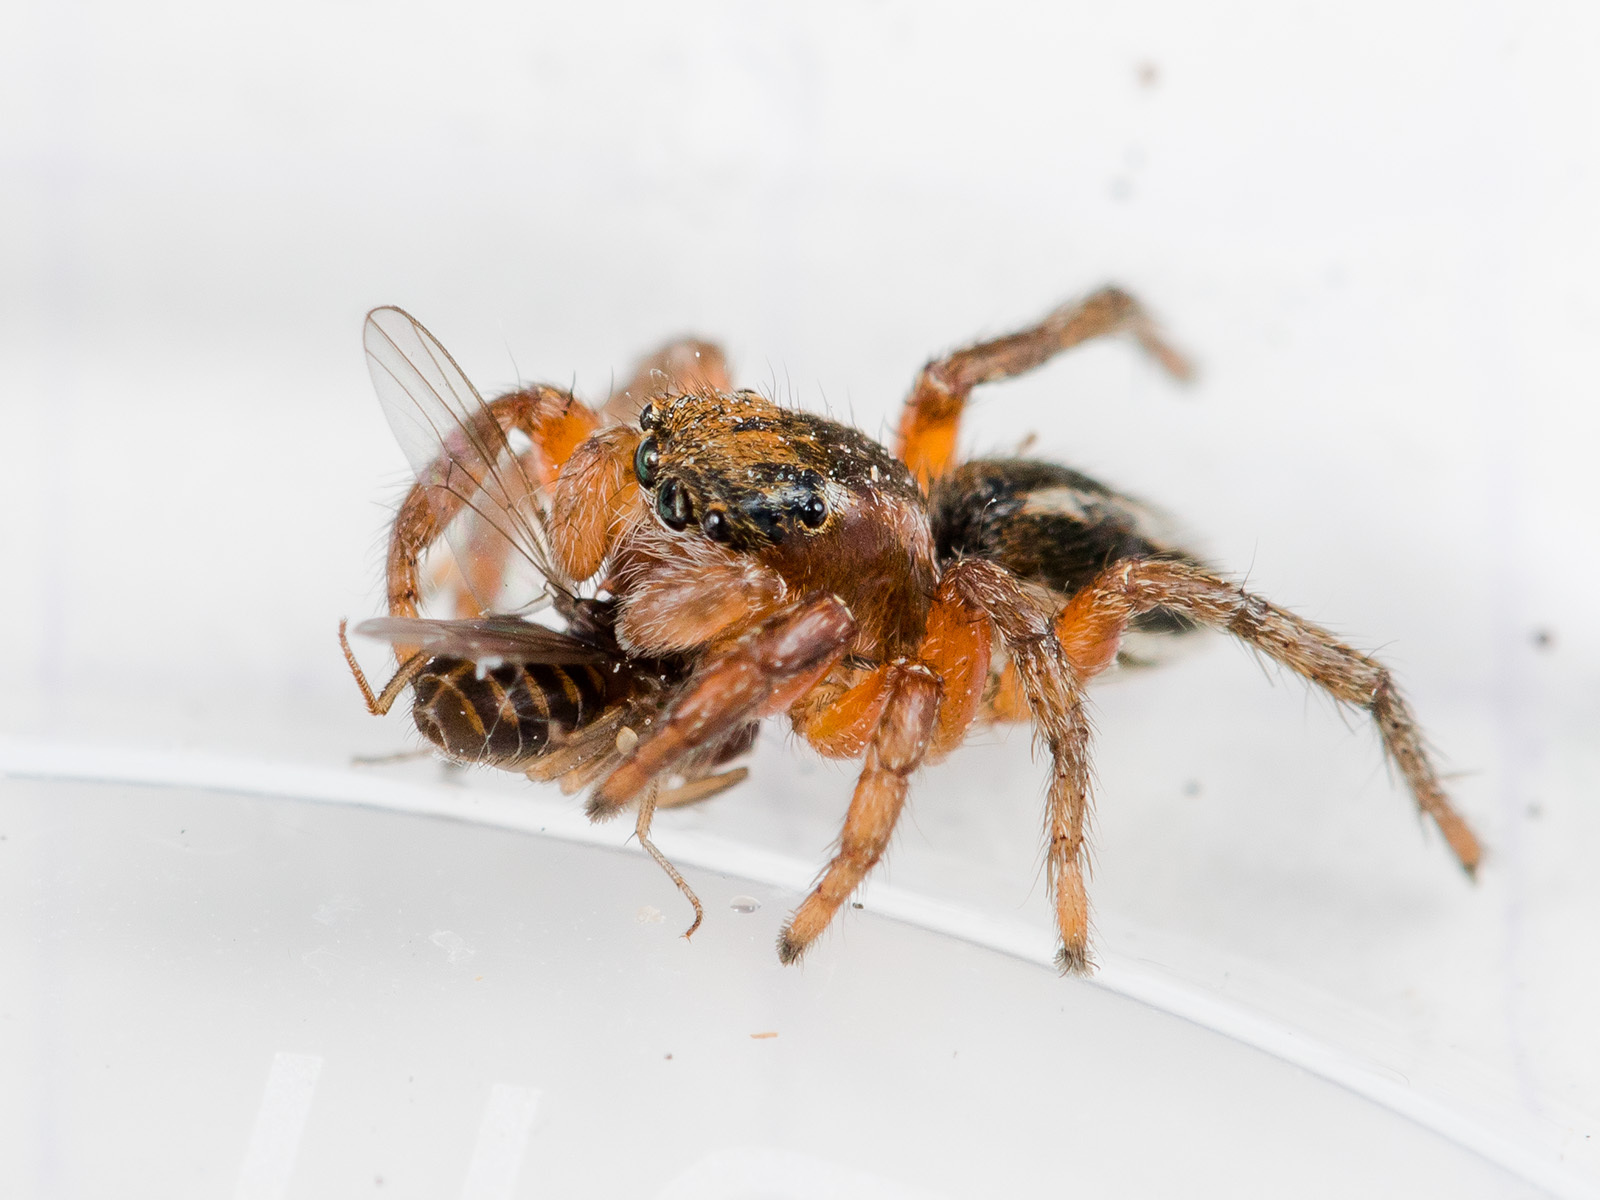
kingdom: Animalia
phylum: Arthropoda
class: Arachnida
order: Araneae
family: Salticidae
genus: Phlegra
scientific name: Phlegra fasciata
